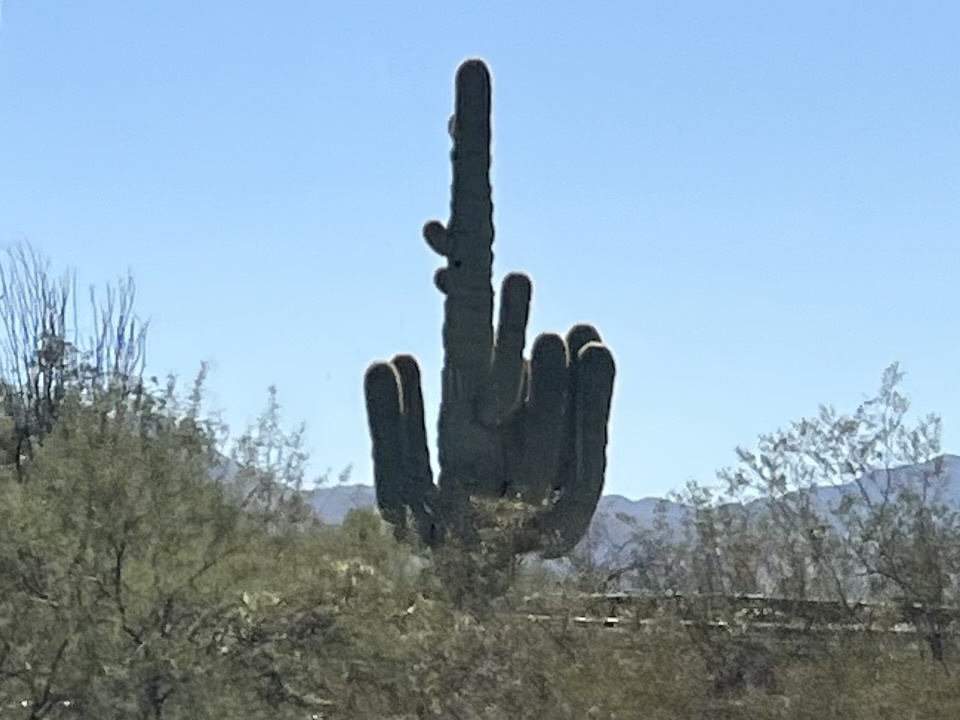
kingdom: Plantae
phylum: Tracheophyta
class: Magnoliopsida
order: Caryophyllales
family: Cactaceae
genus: Carnegiea
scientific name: Carnegiea gigantea
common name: Saguaro
